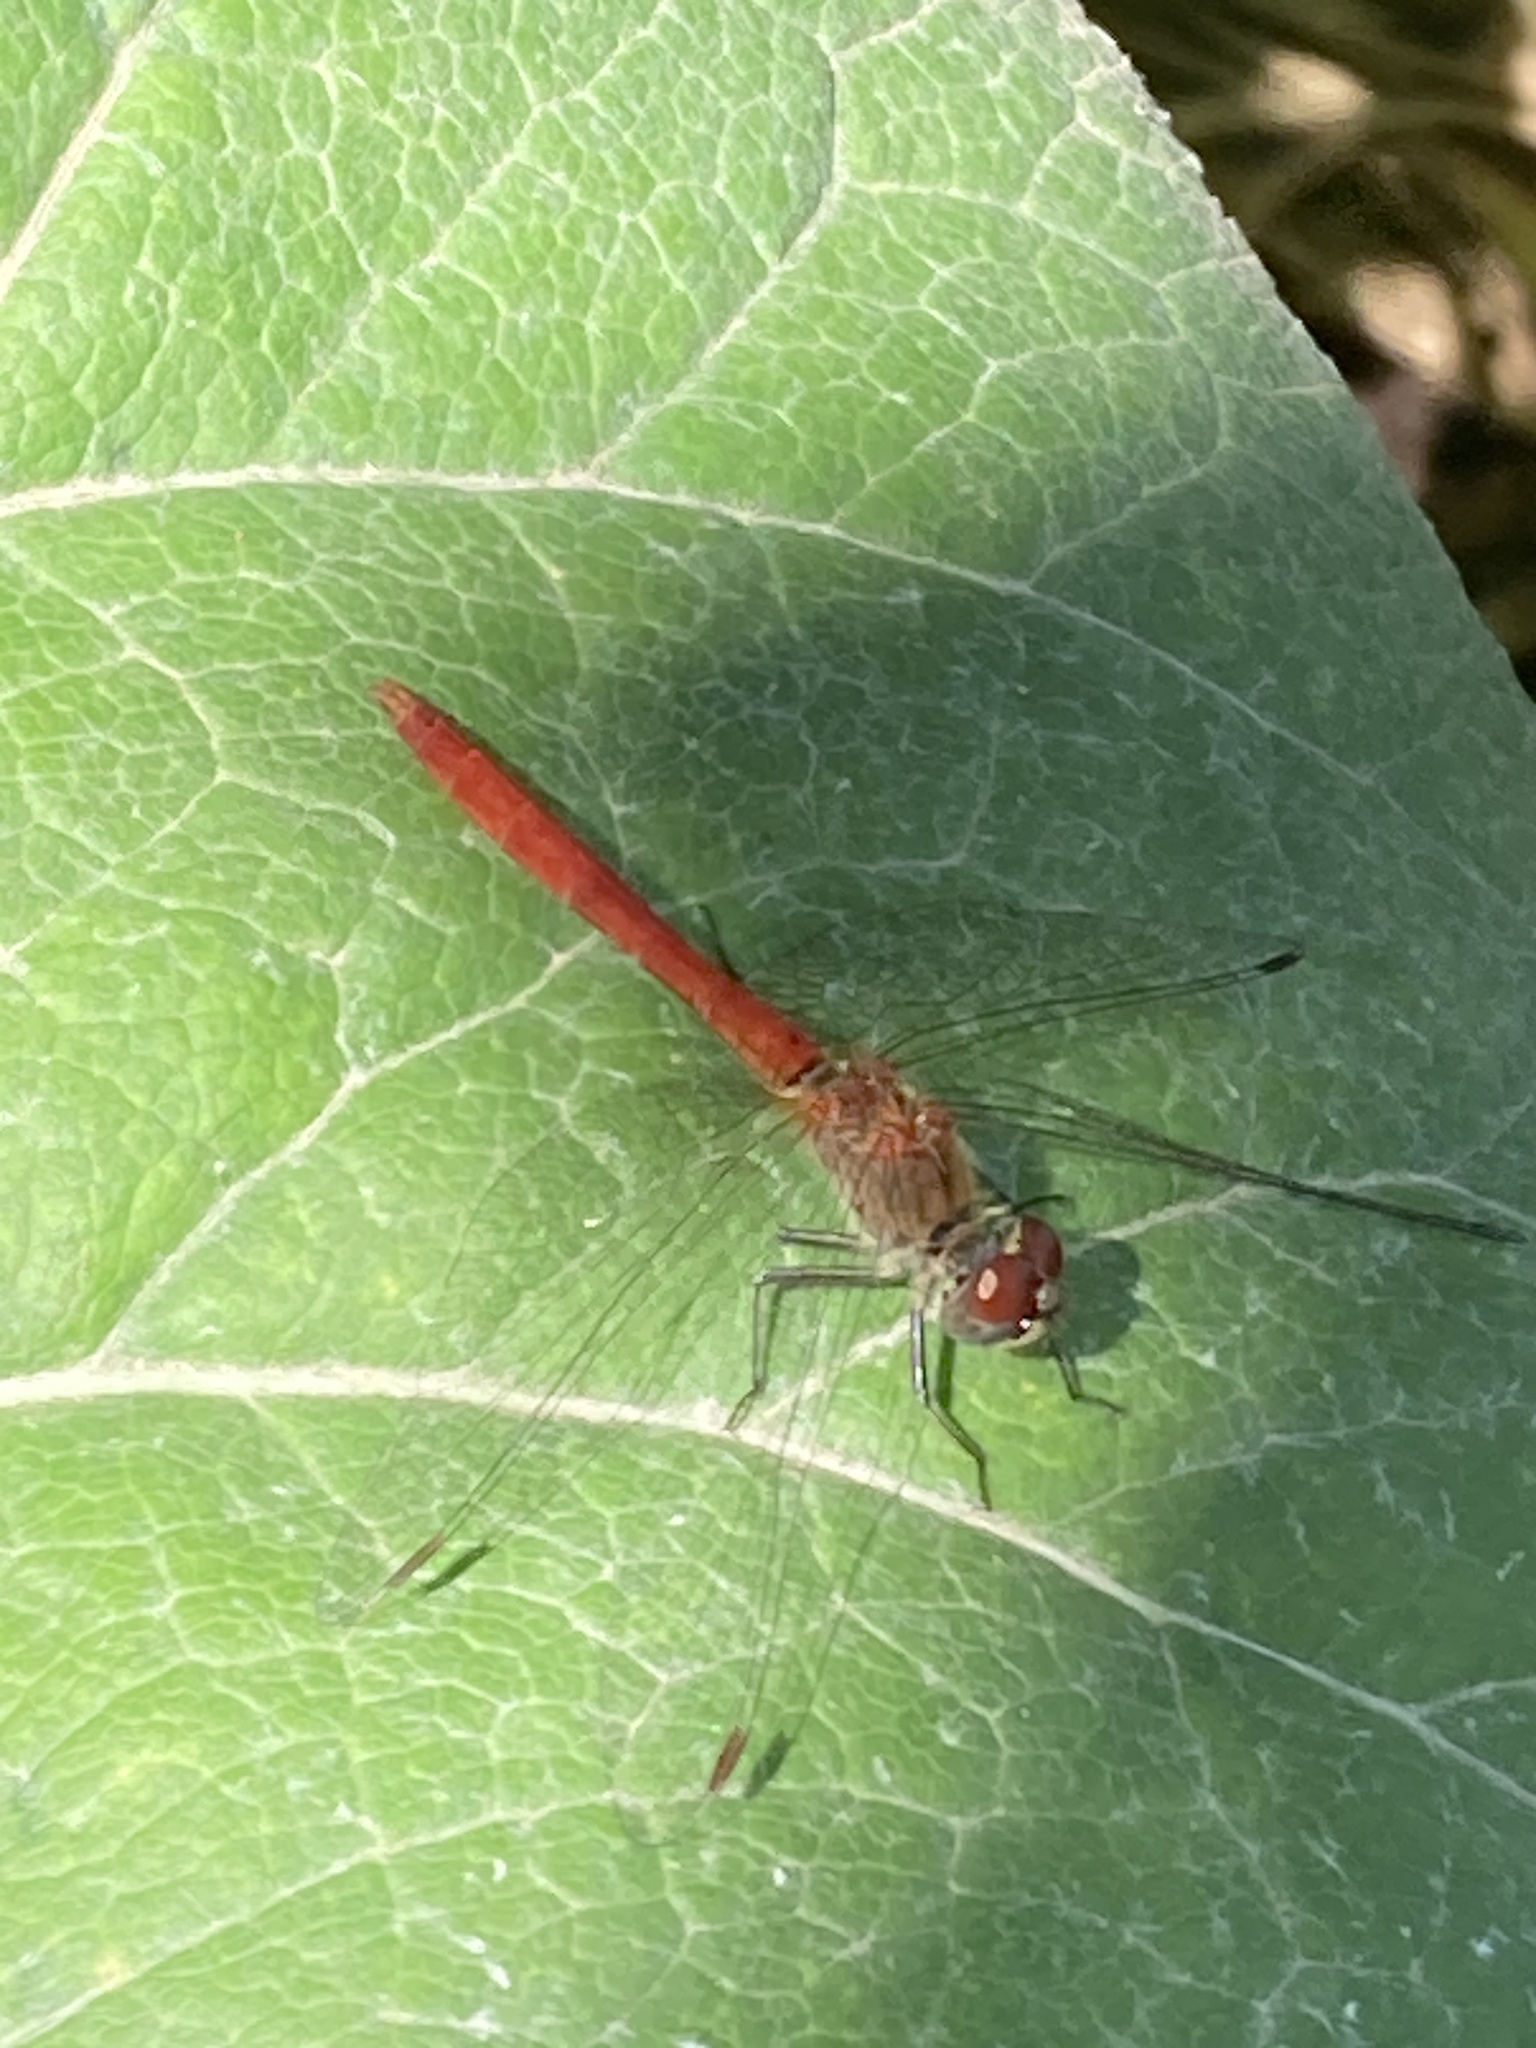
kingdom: Animalia
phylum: Arthropoda
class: Insecta
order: Odonata
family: Libellulidae
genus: Sympetrum
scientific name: Sympetrum tibiale
